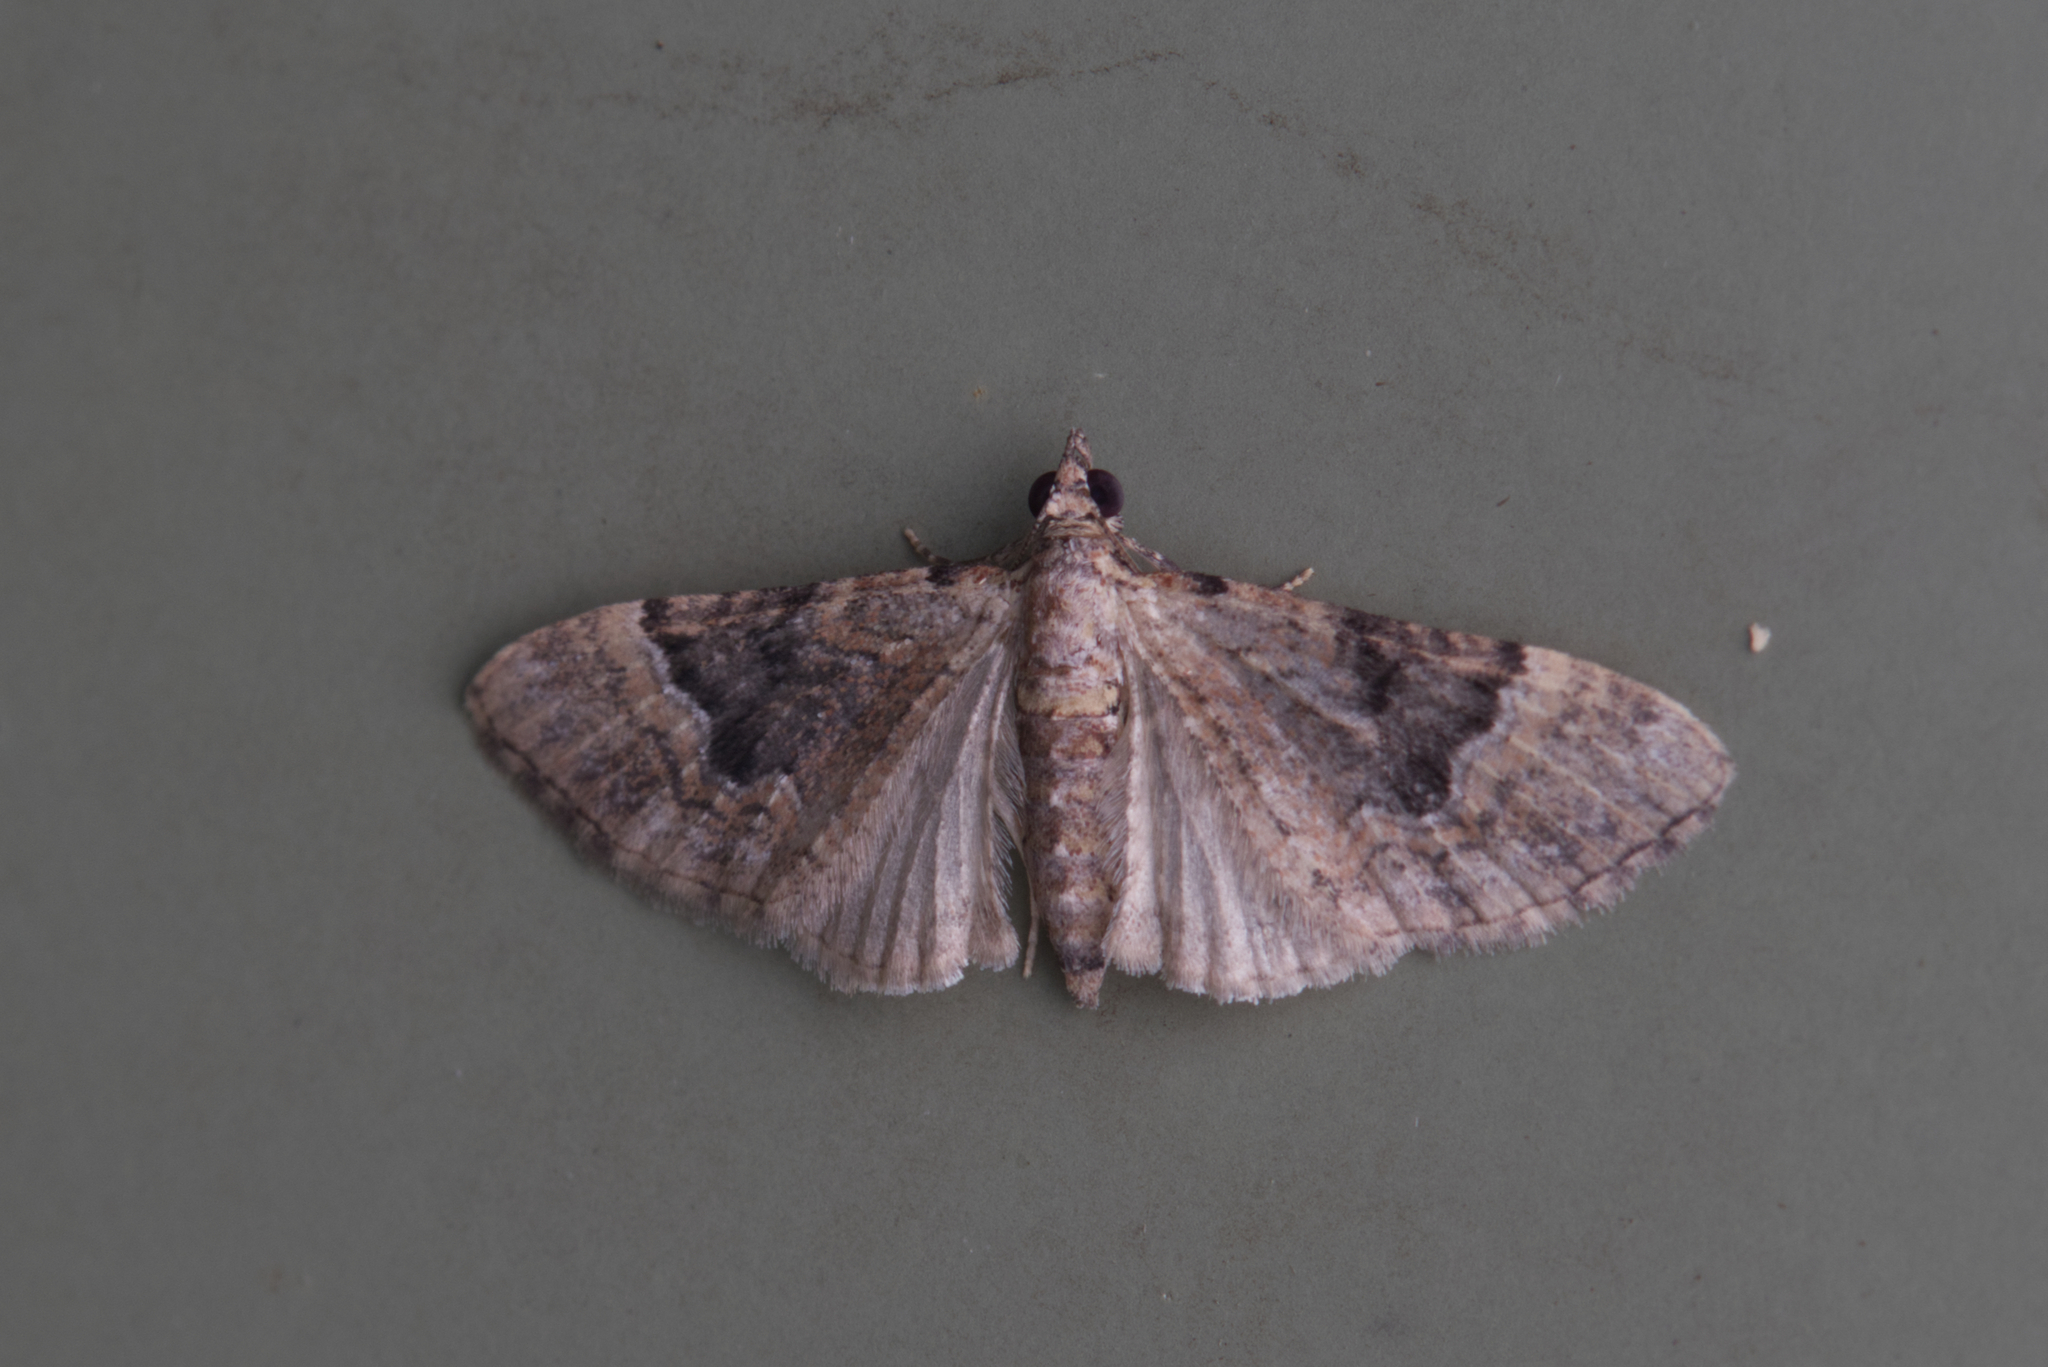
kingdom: Animalia
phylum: Arthropoda
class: Insecta
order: Lepidoptera
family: Geometridae
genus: Mnesiloba
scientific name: Mnesiloba eupitheciata
